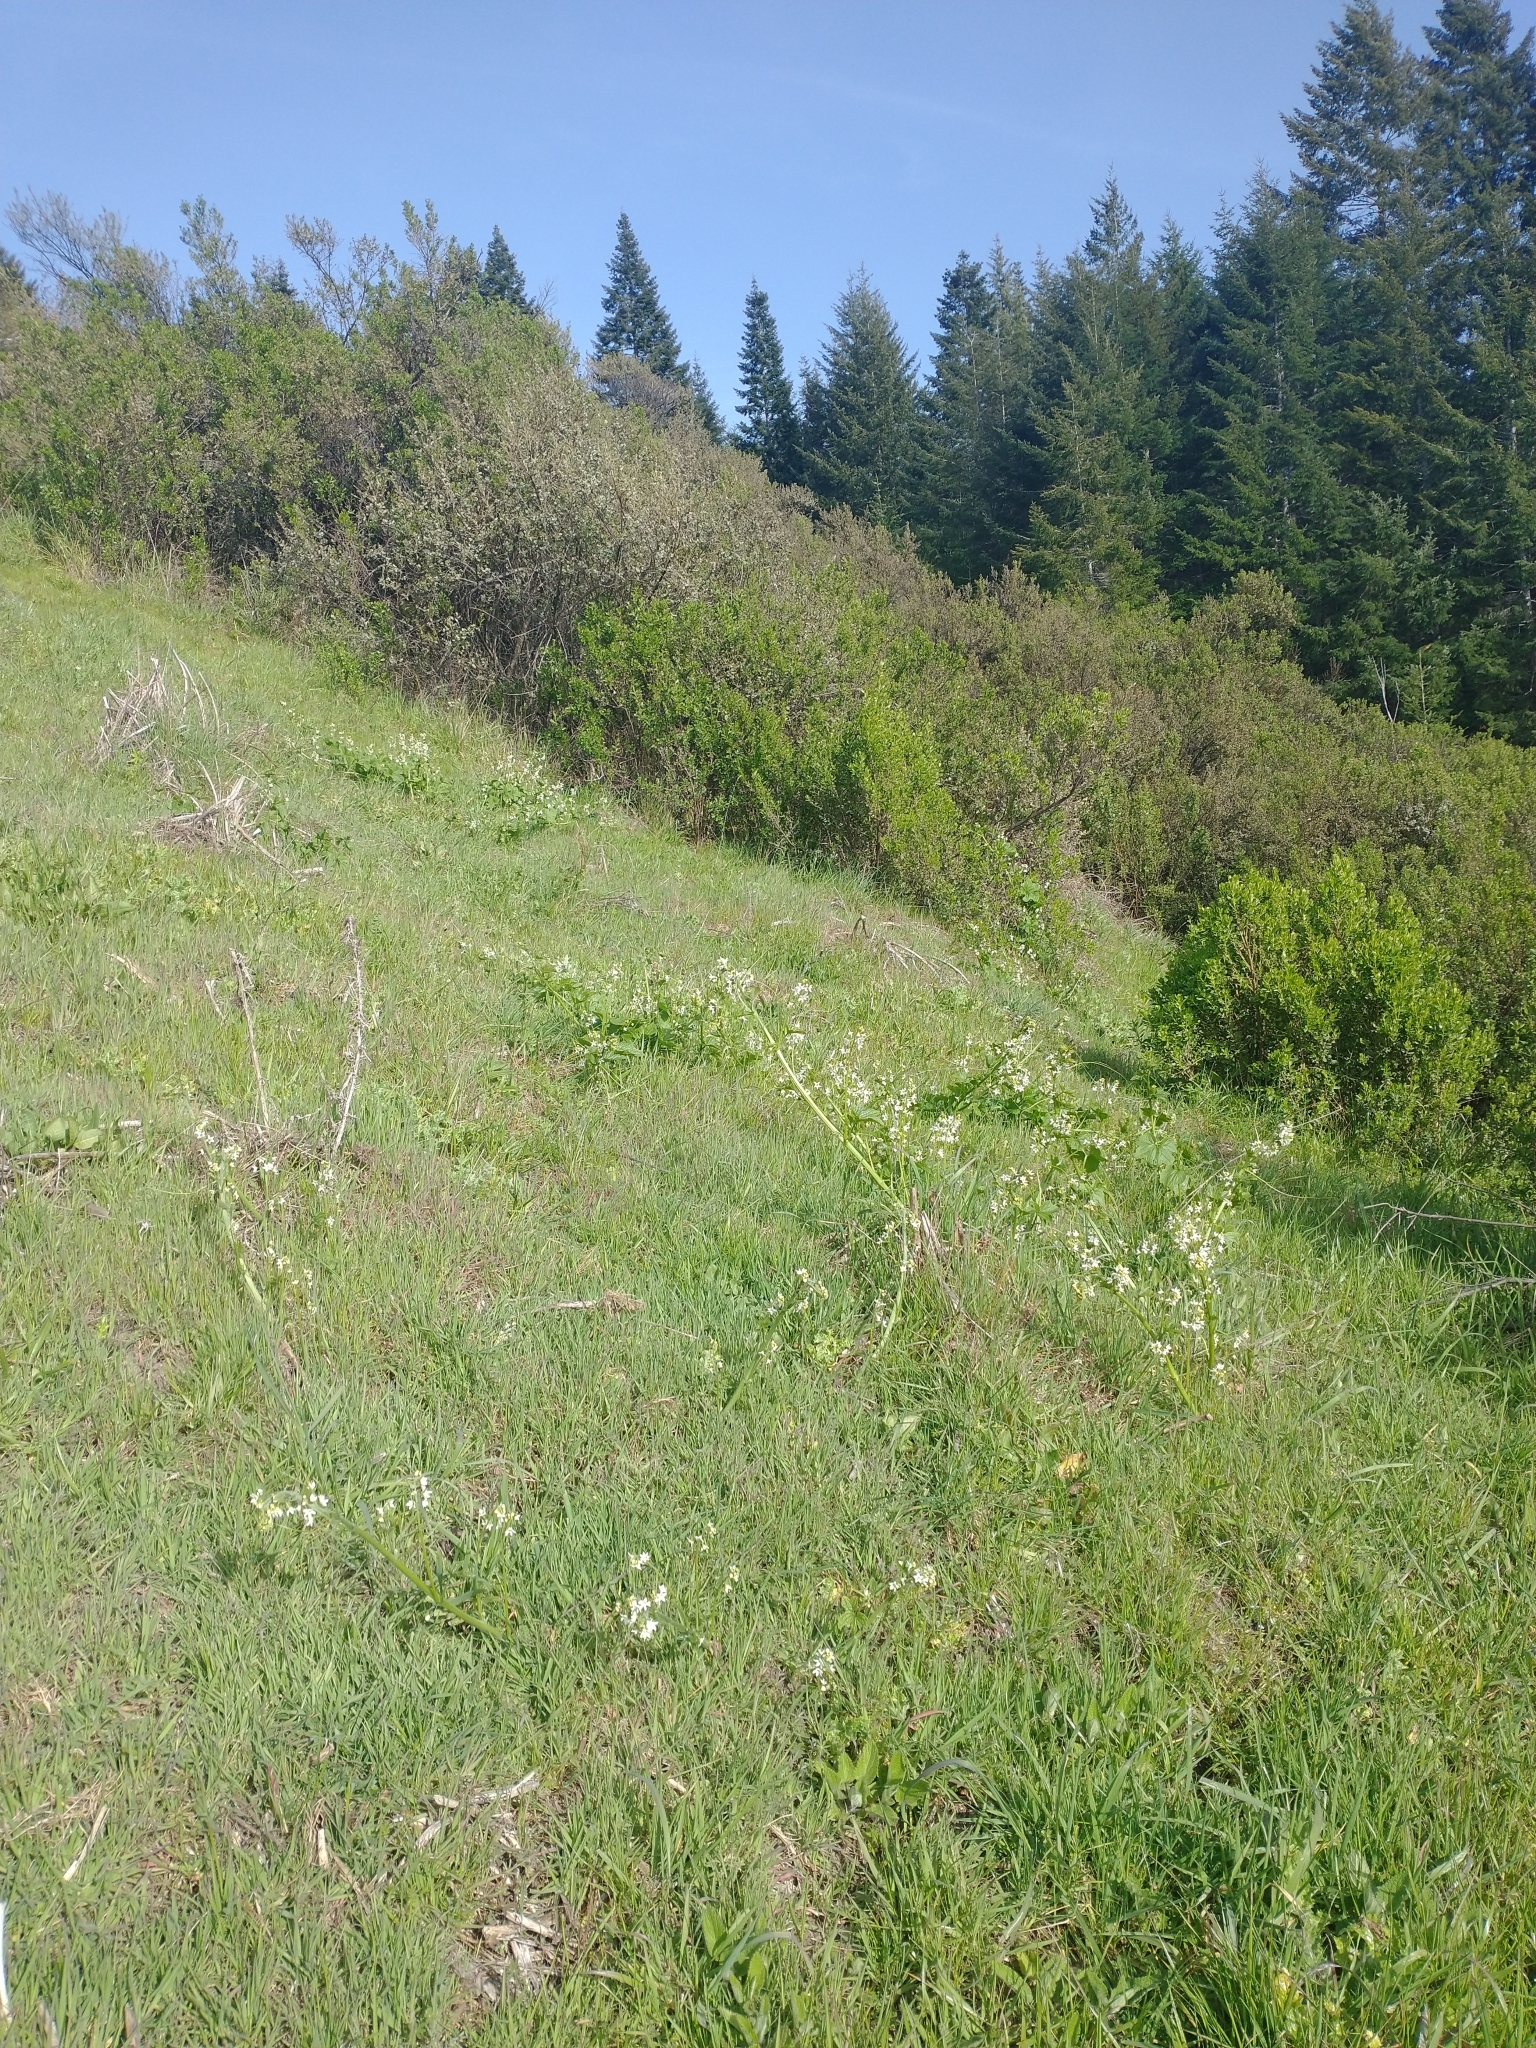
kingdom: Plantae
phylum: Tracheophyta
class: Magnoliopsida
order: Cucurbitales
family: Cucurbitaceae
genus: Marah
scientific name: Marah oregana
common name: Coastal manroot
